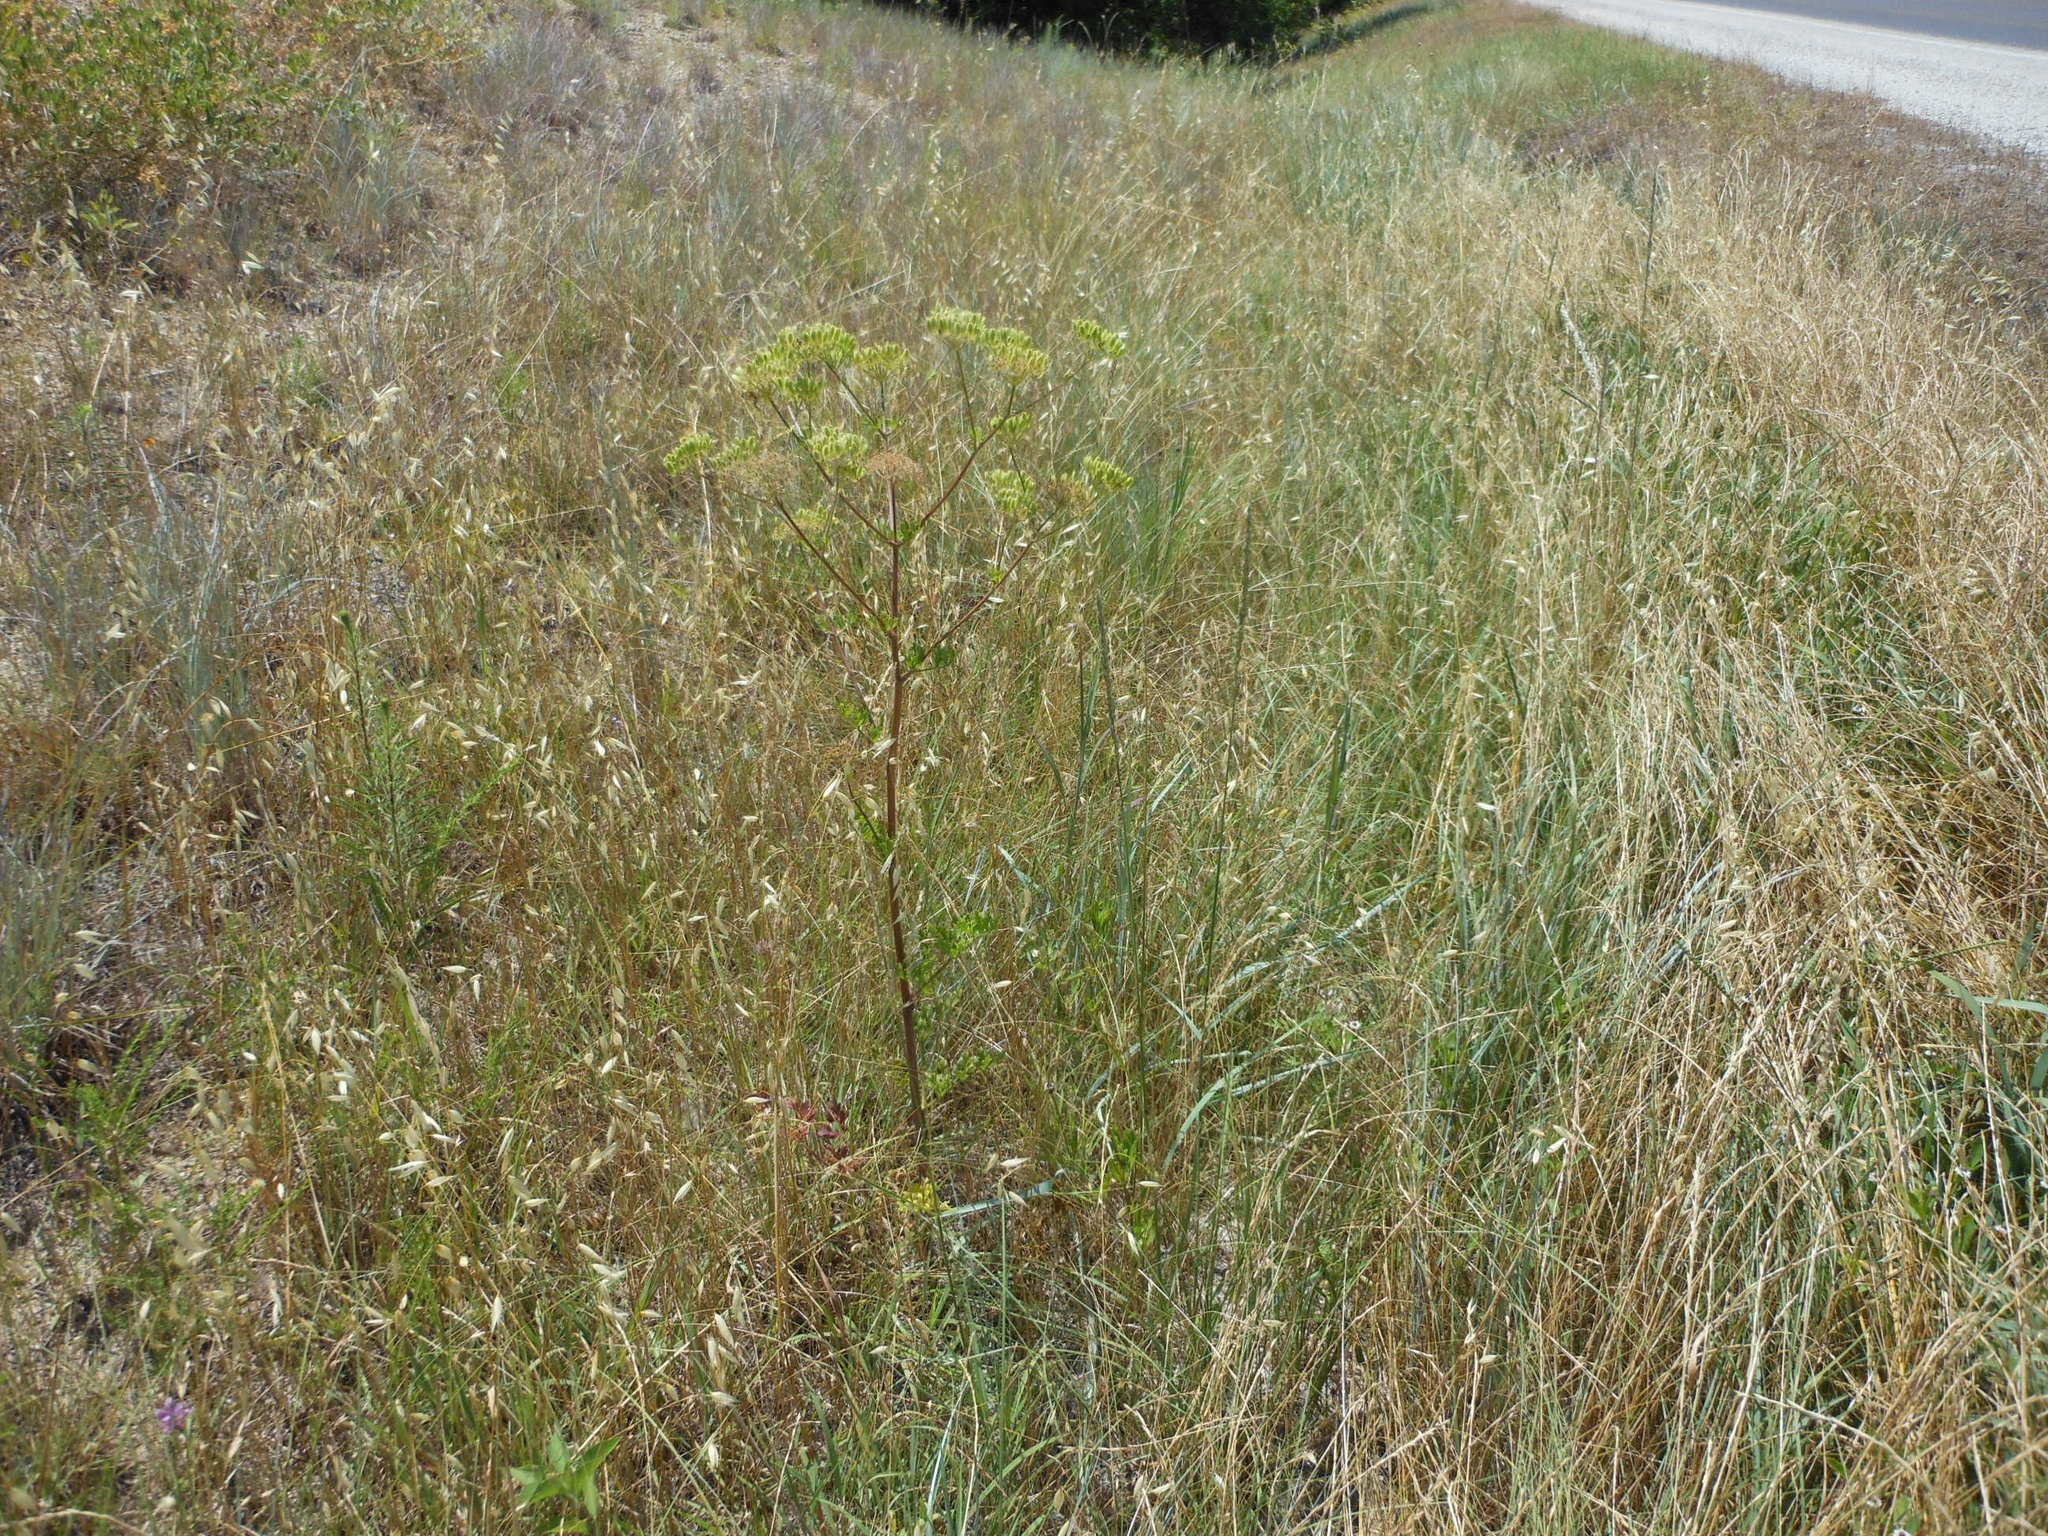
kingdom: Plantae
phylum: Tracheophyta
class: Magnoliopsida
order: Apiales
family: Apiaceae
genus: Polytaenia
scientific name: Polytaenia texana
